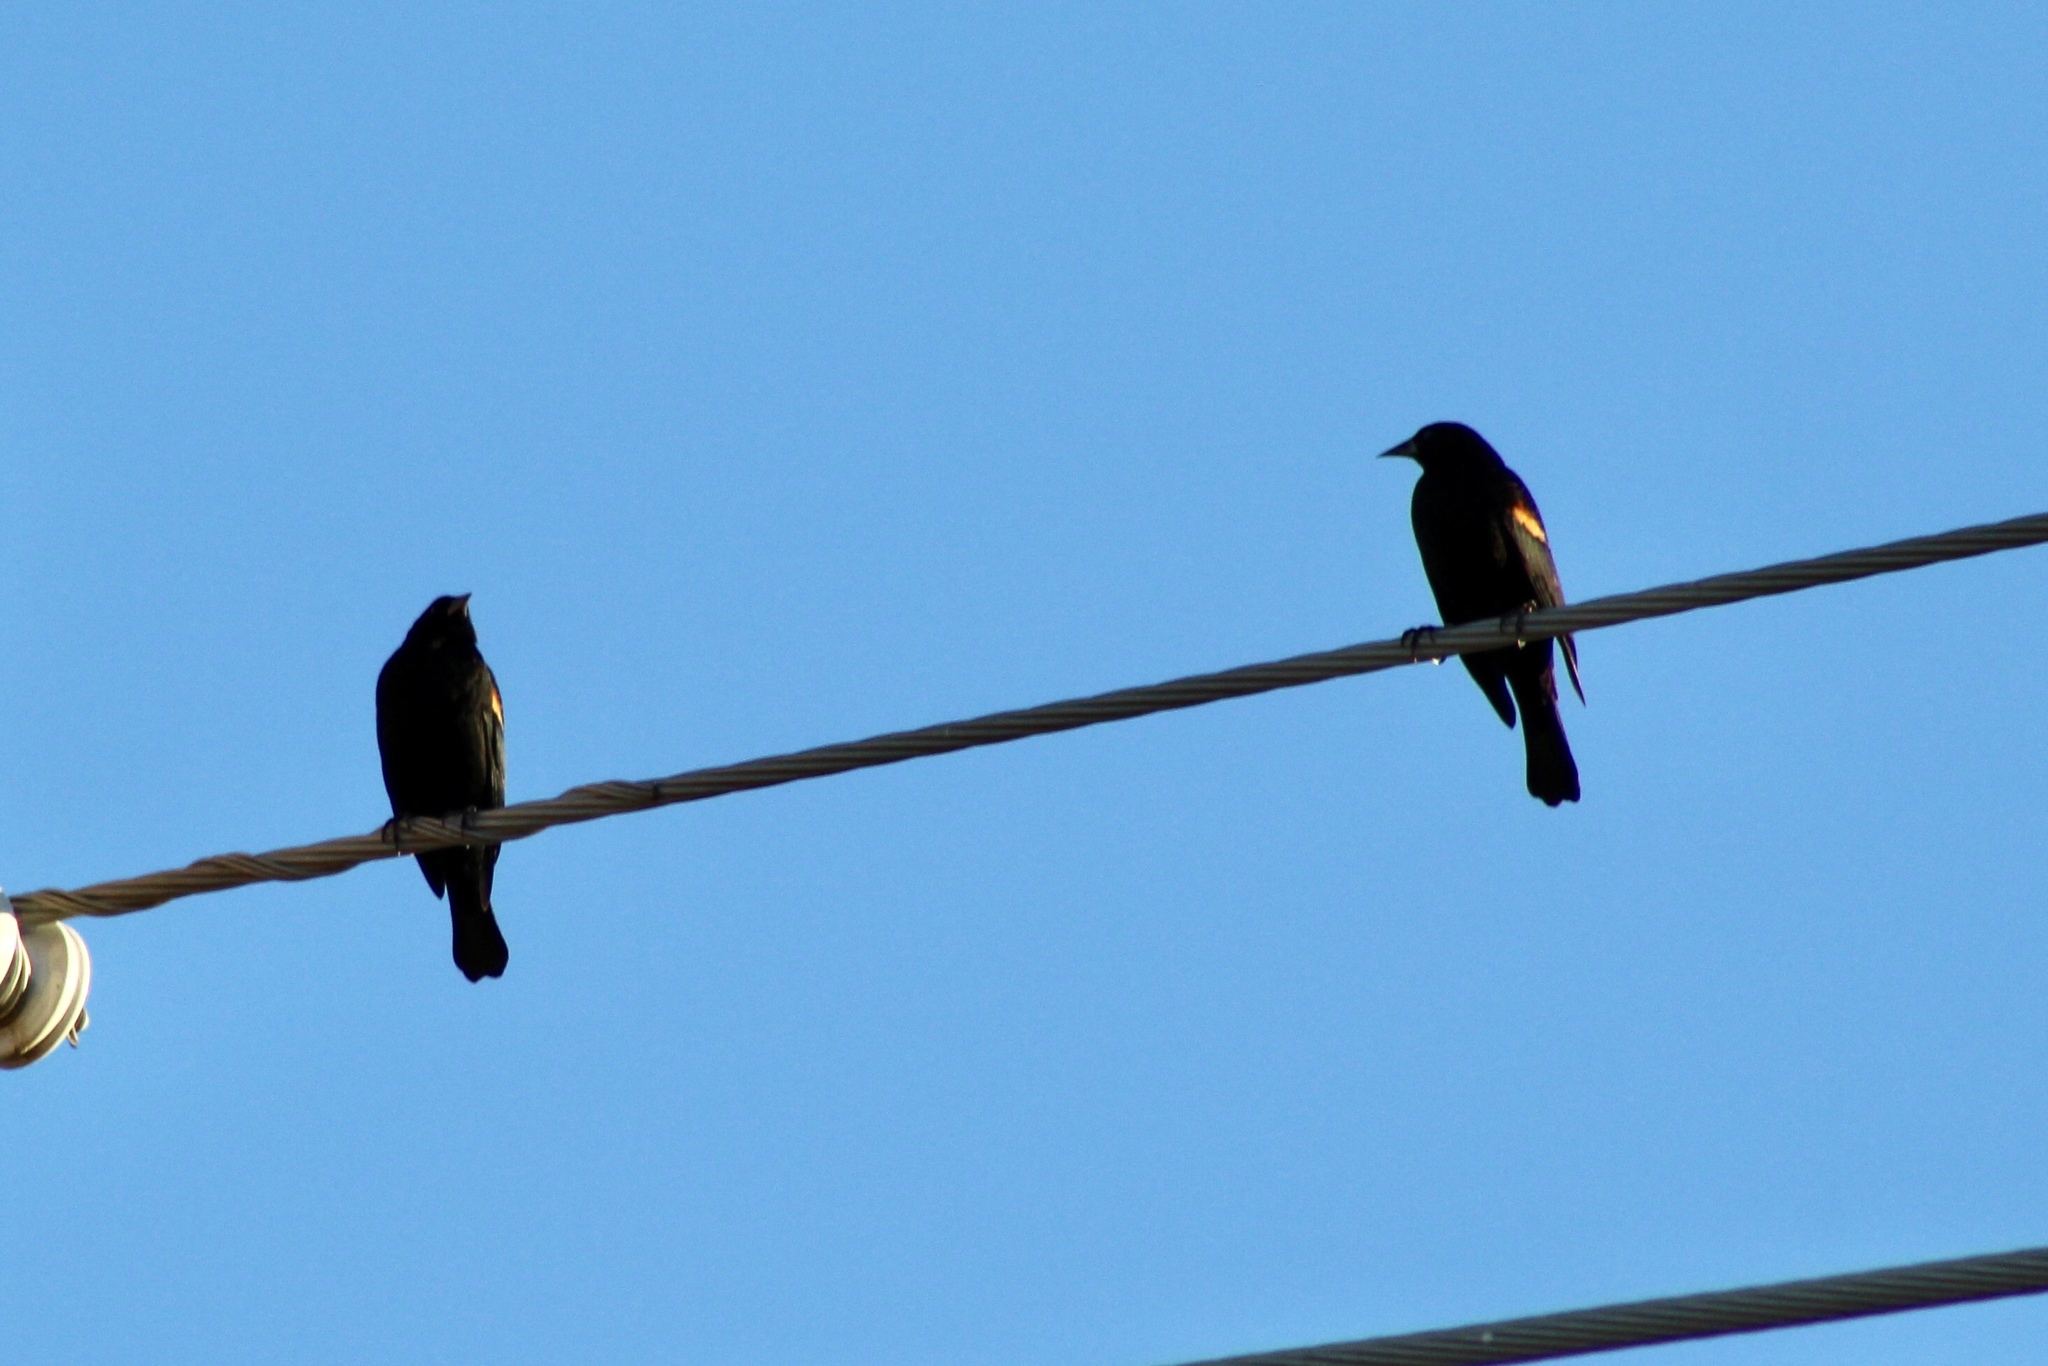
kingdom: Animalia
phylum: Chordata
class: Aves
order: Passeriformes
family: Icteridae
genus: Agelaius
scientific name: Agelaius phoeniceus
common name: Red-winged blackbird
